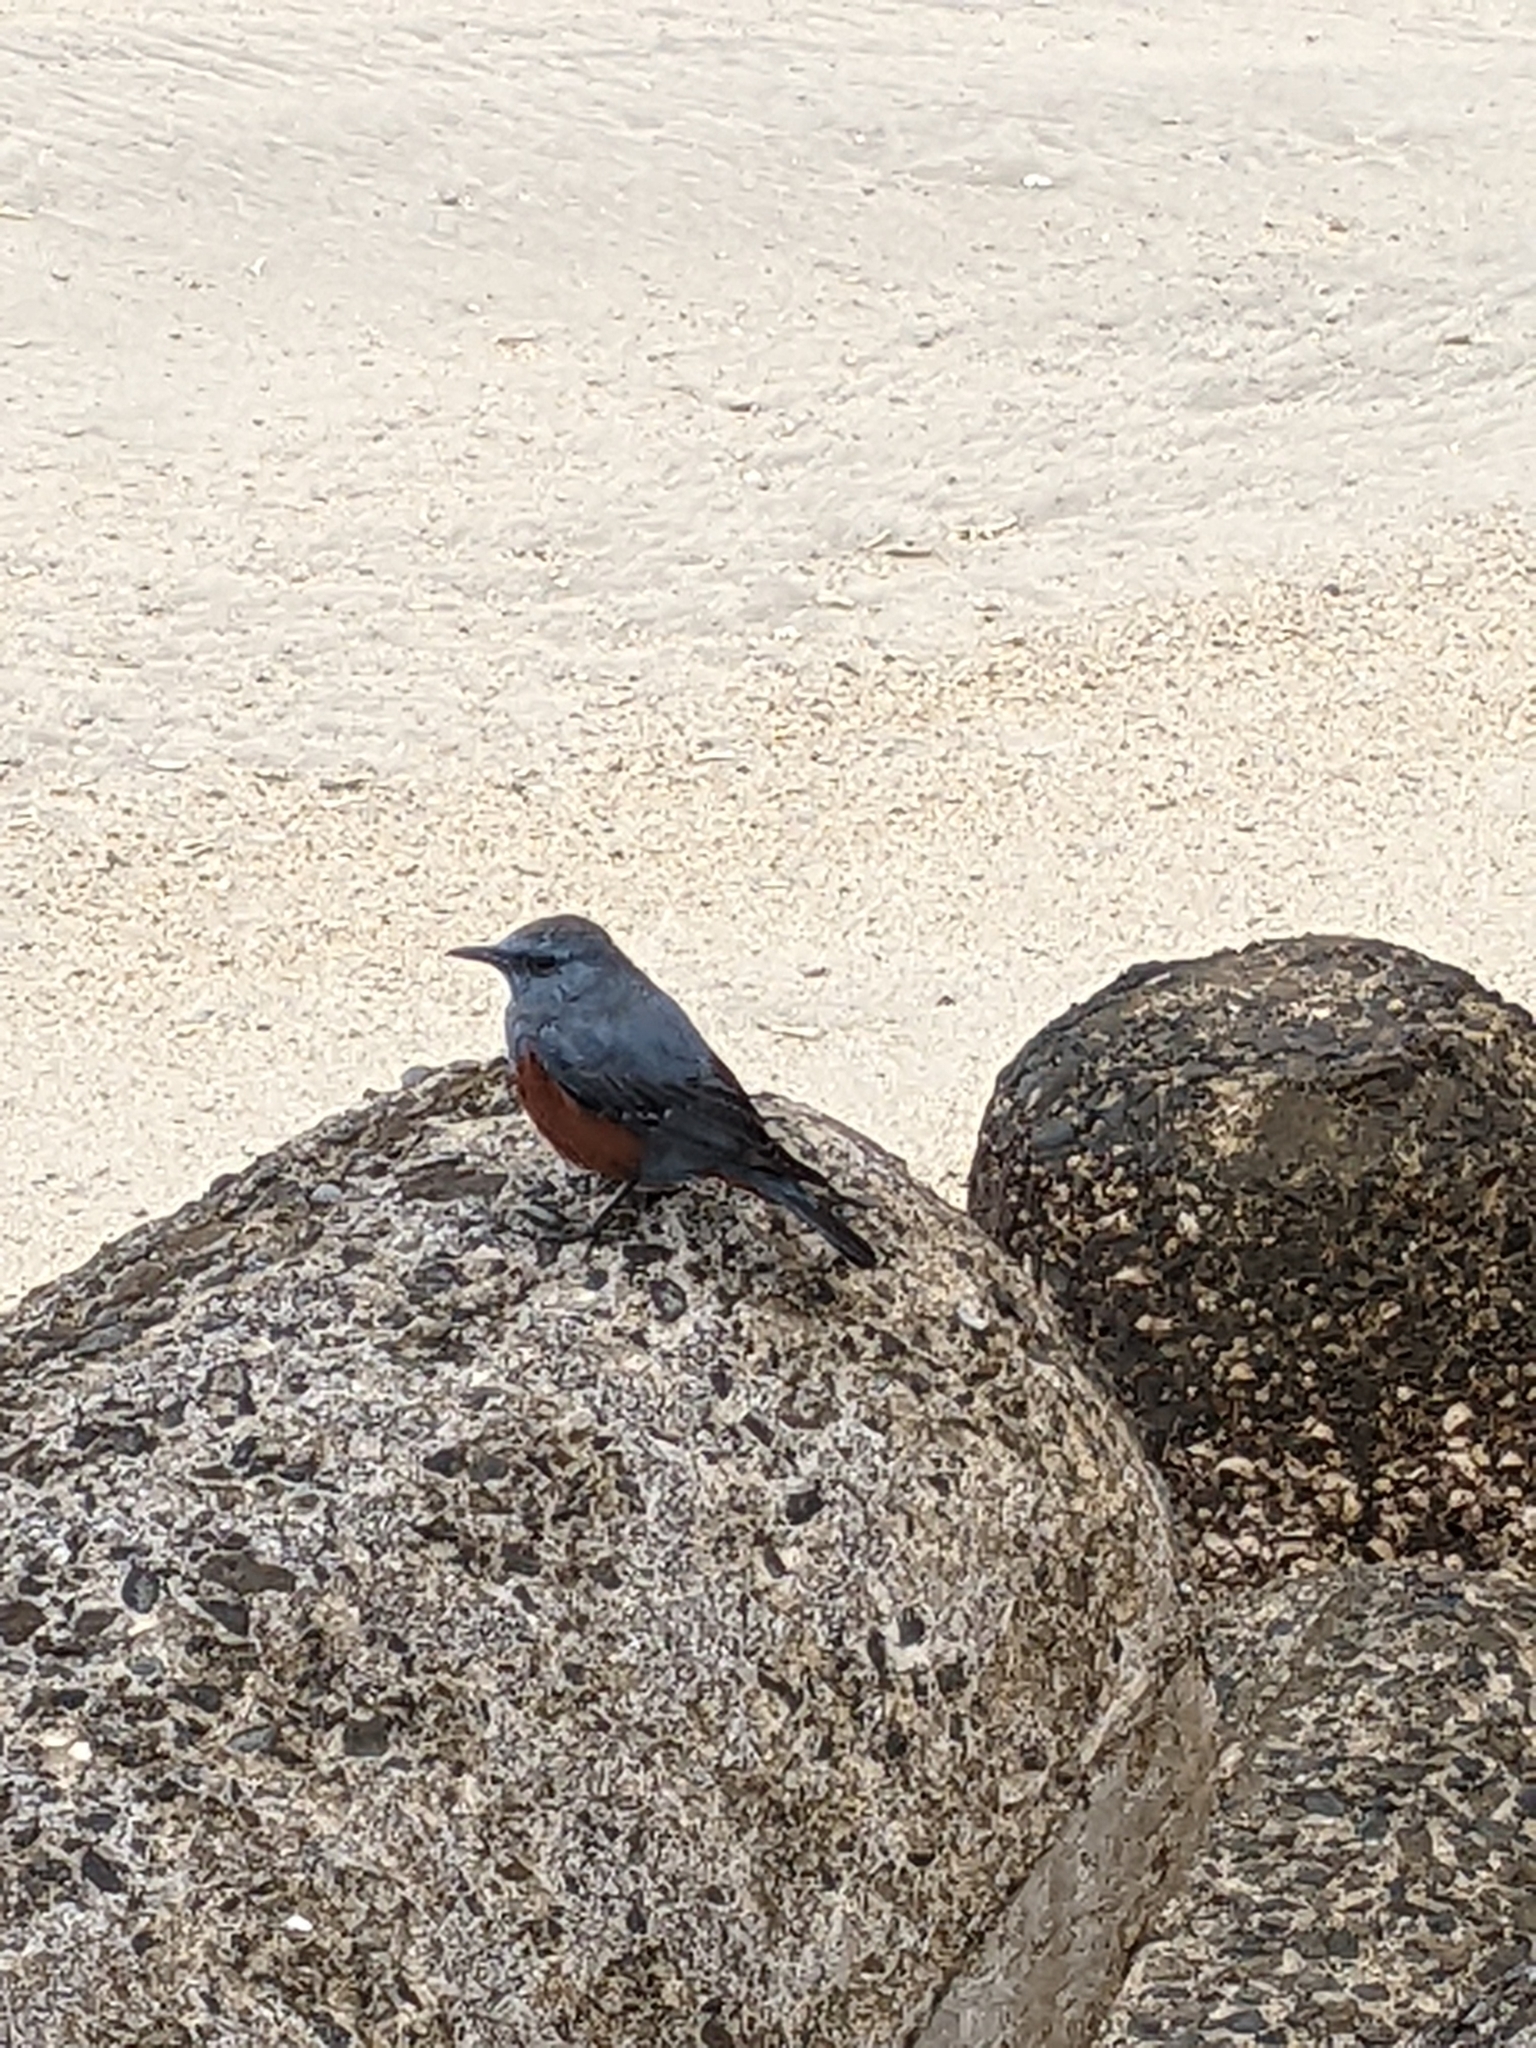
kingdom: Animalia
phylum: Chordata
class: Aves
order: Passeriformes
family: Muscicapidae
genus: Monticola
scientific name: Monticola solitarius
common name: Blue rock thrush
